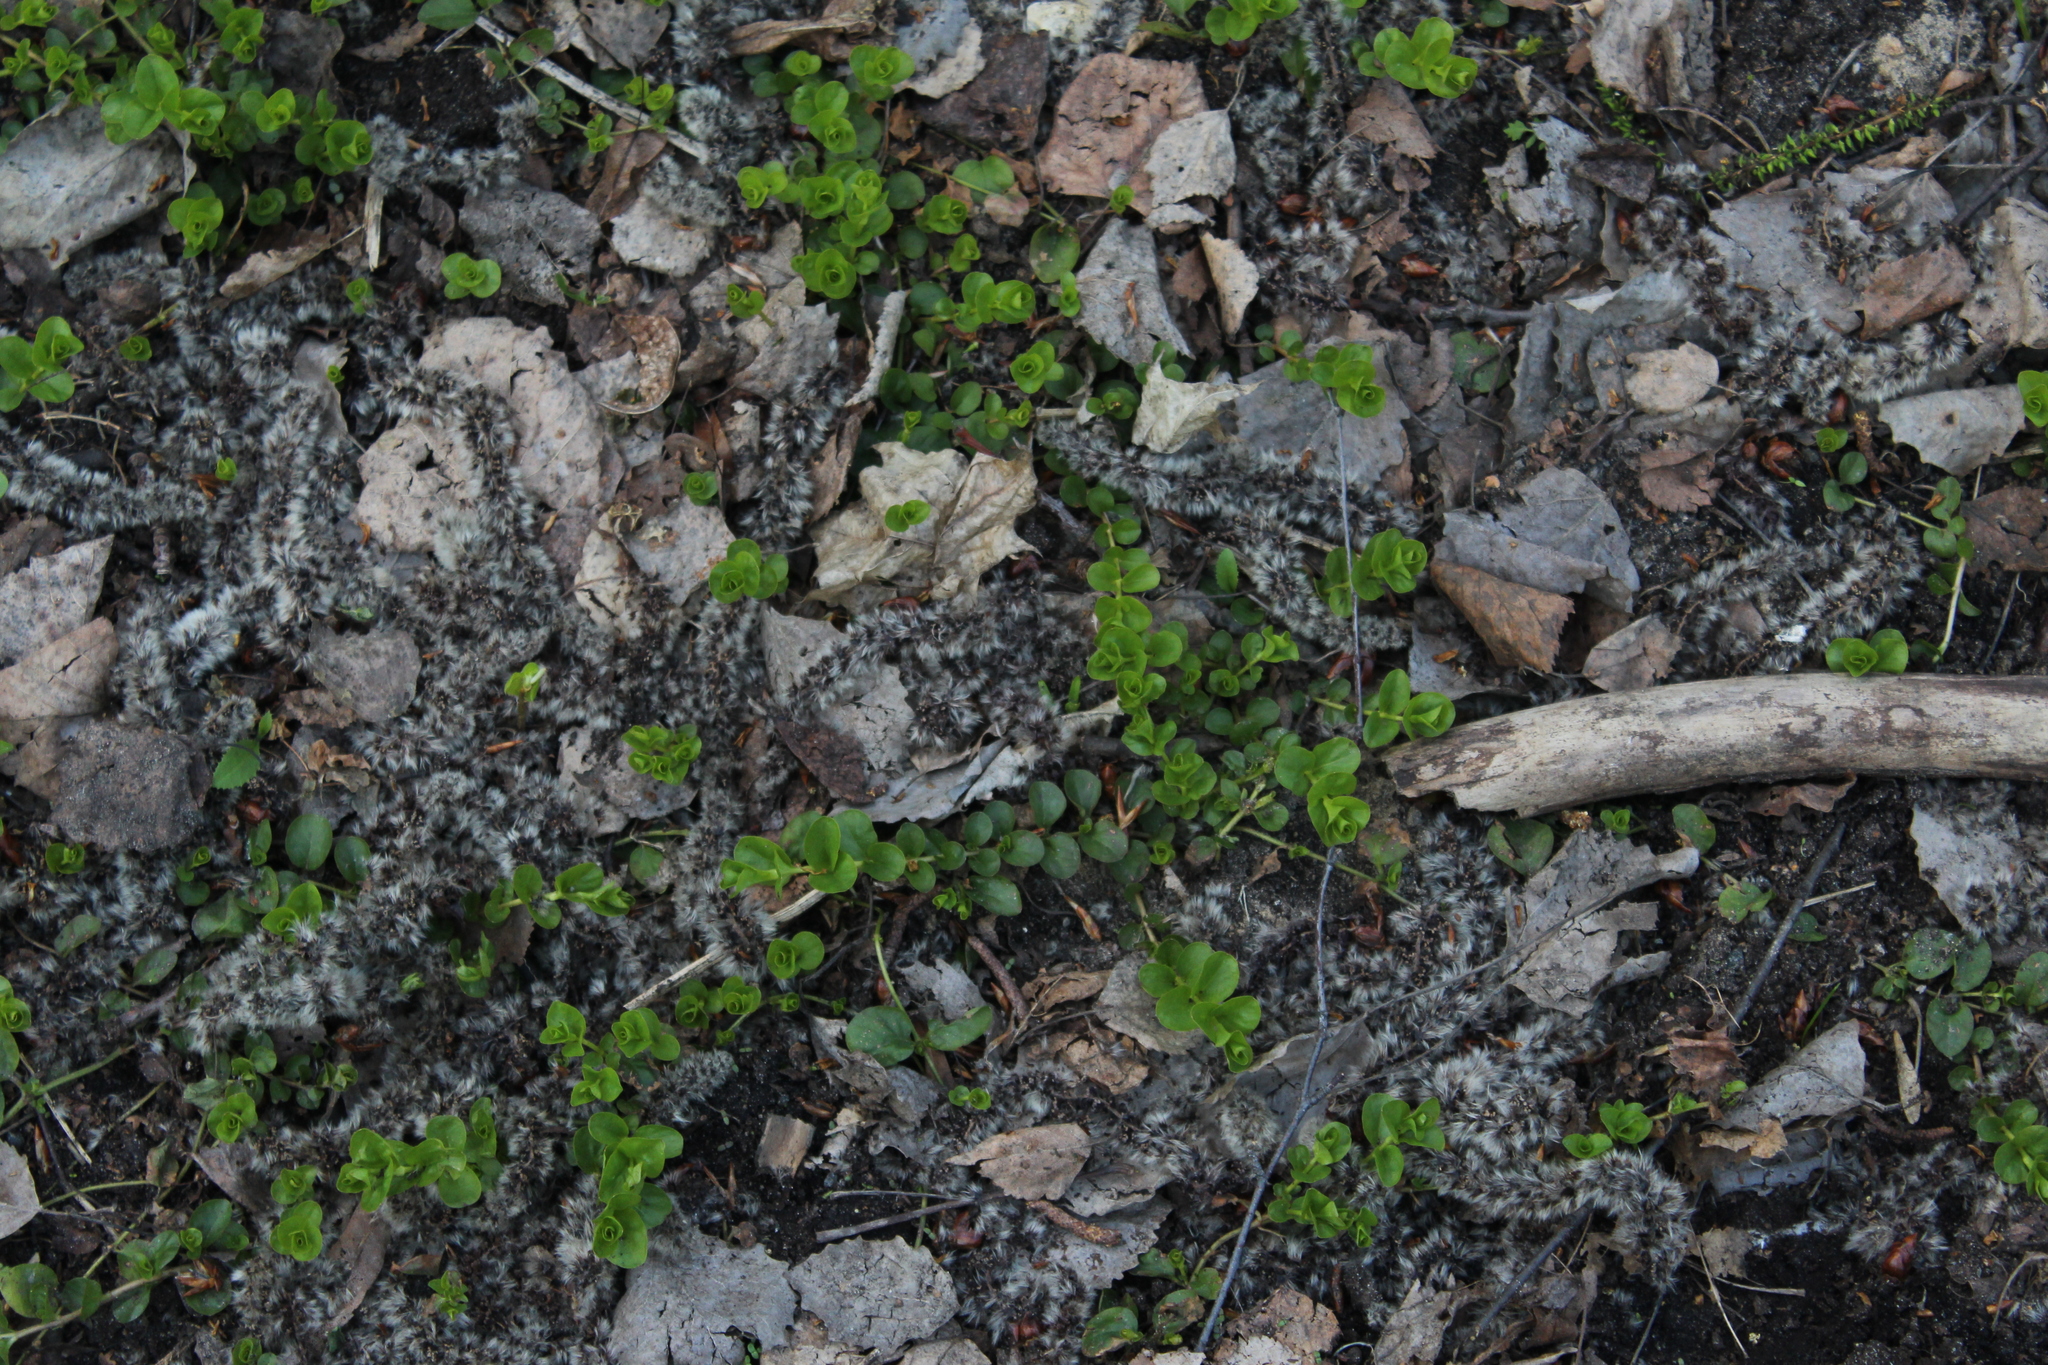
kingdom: Plantae
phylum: Tracheophyta
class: Magnoliopsida
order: Ericales
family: Primulaceae
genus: Lysimachia
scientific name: Lysimachia nummularia
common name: Moneywort
